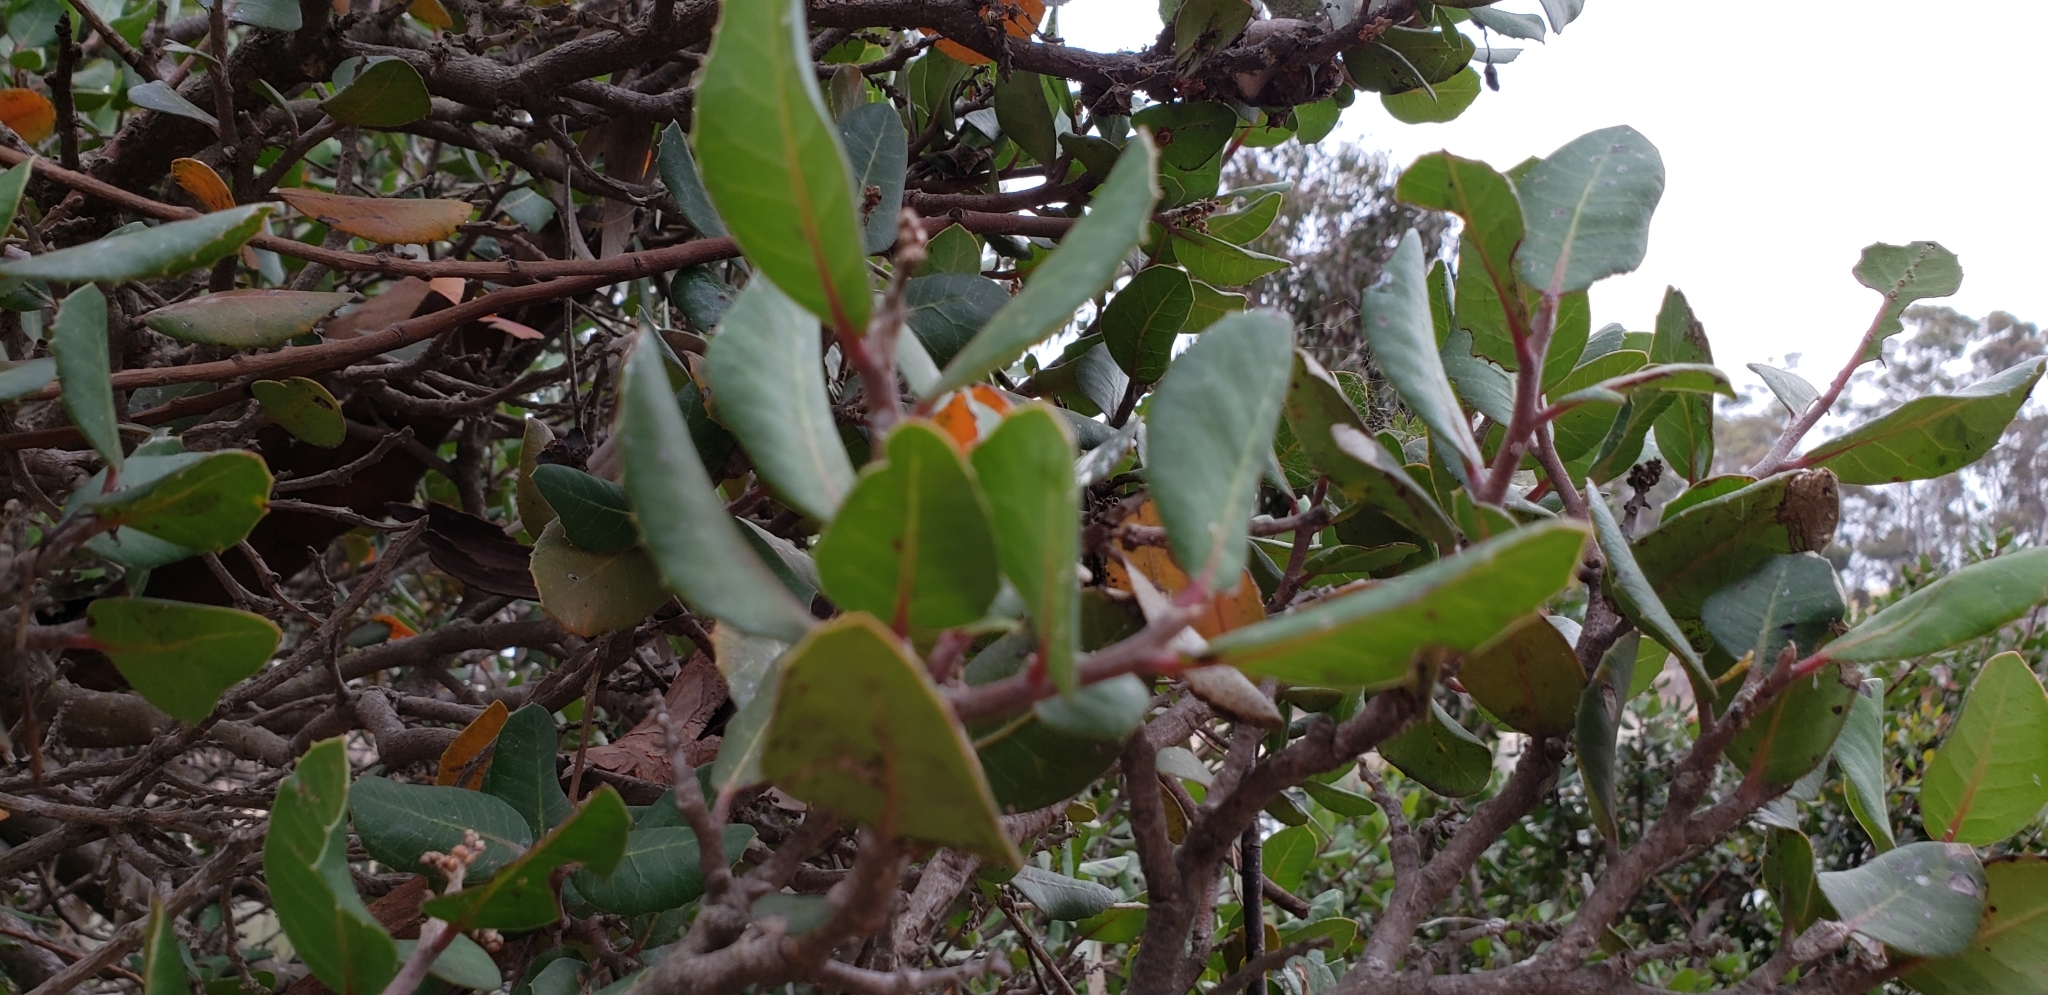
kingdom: Plantae
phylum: Tracheophyta
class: Magnoliopsida
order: Sapindales
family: Anacardiaceae
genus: Rhus
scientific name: Rhus integrifolia
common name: Lemonade sumac
